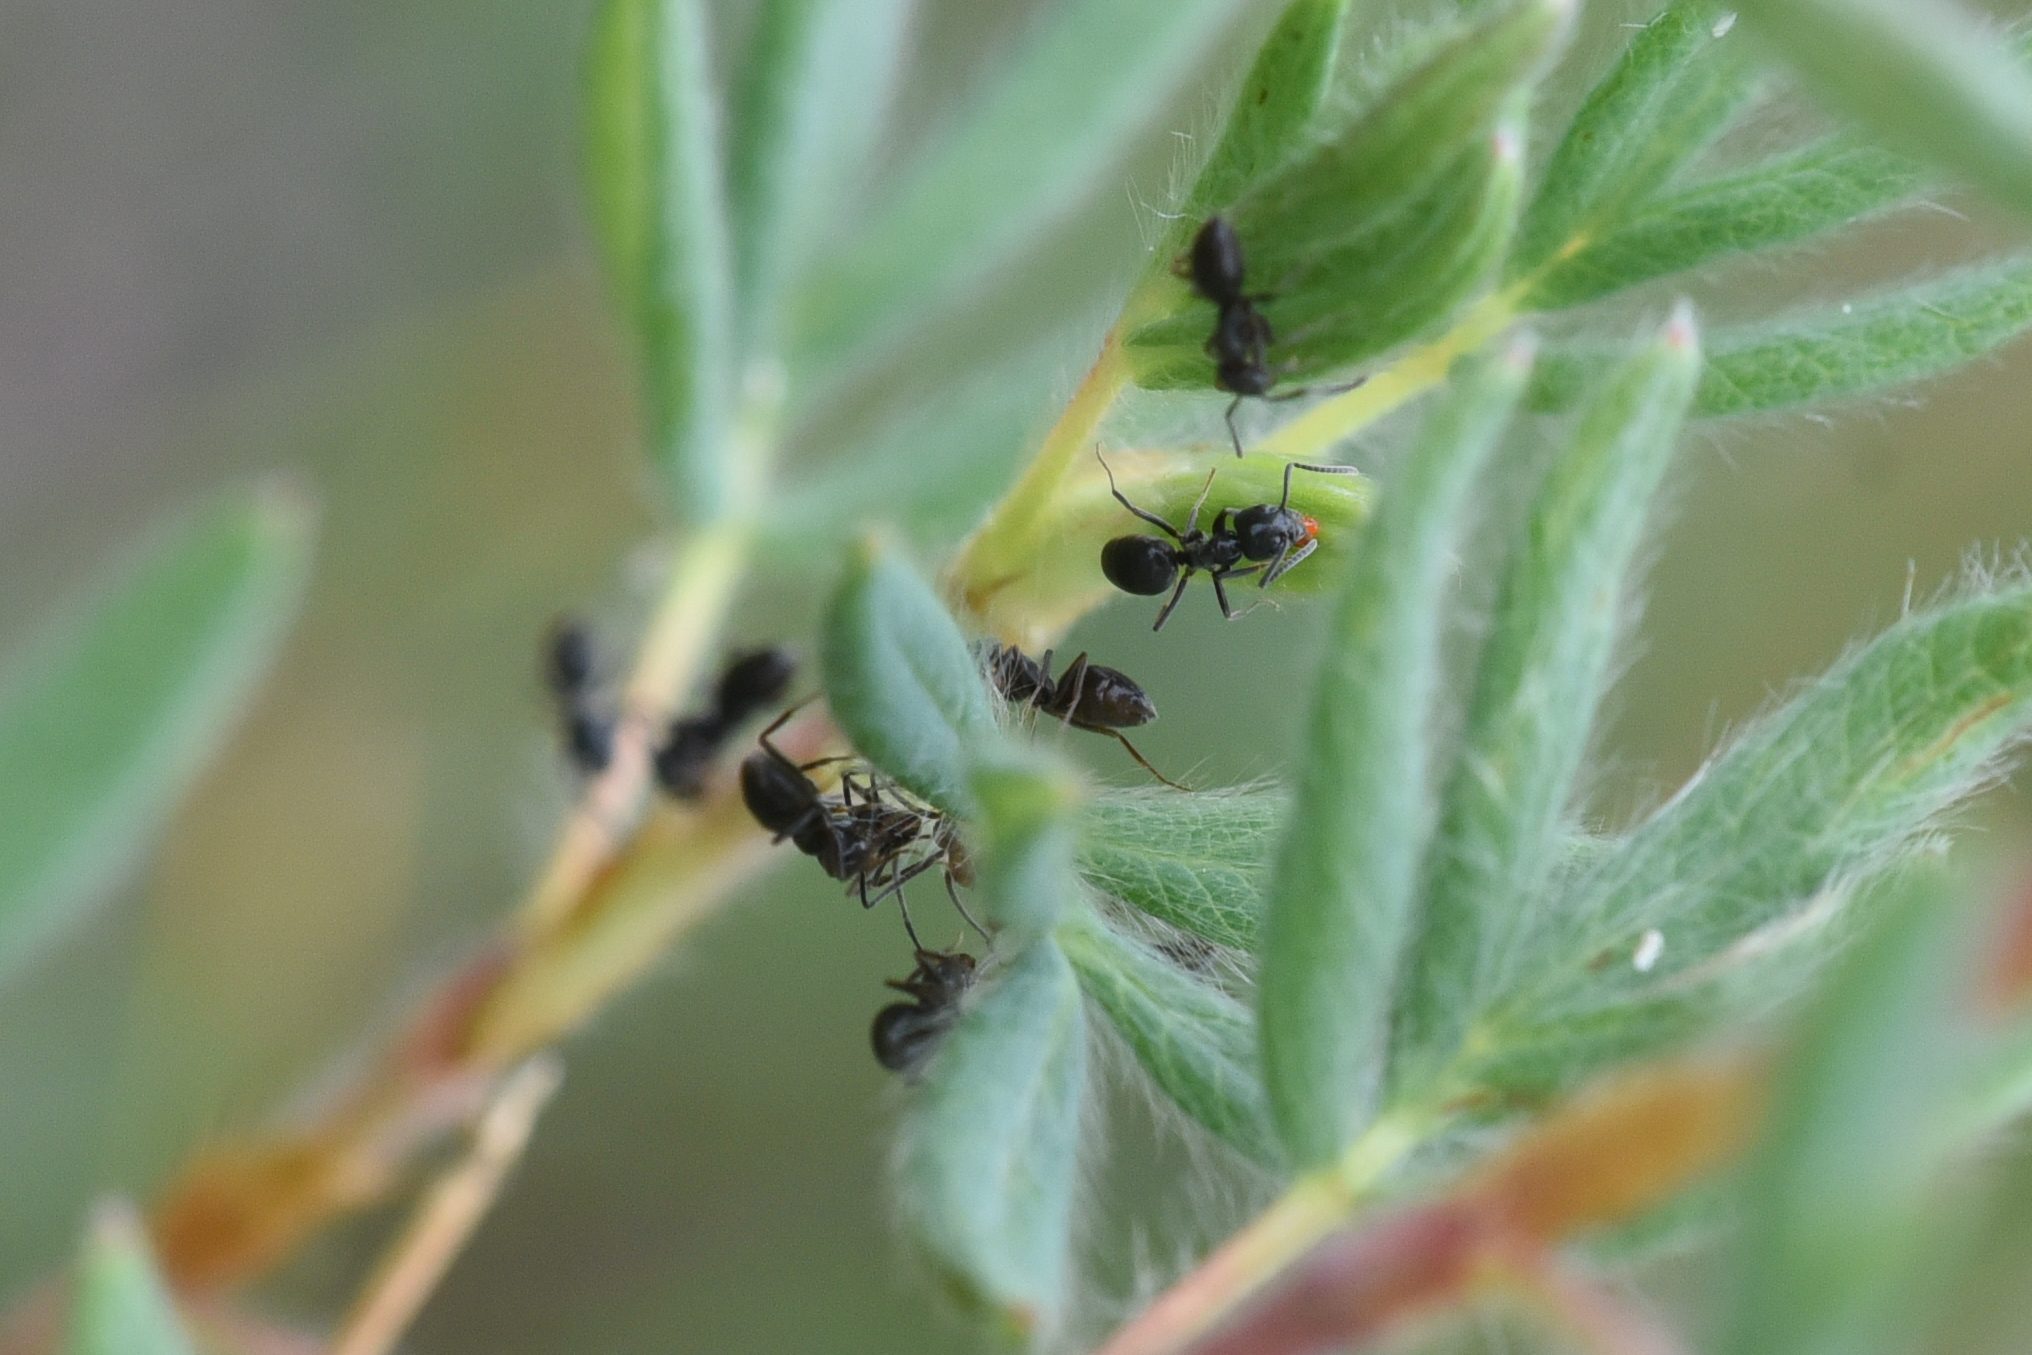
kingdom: Animalia
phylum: Arthropoda
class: Insecta
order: Hymenoptera
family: Formicidae
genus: Tapinoma
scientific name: Tapinoma sessile
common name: Odorous house ant
